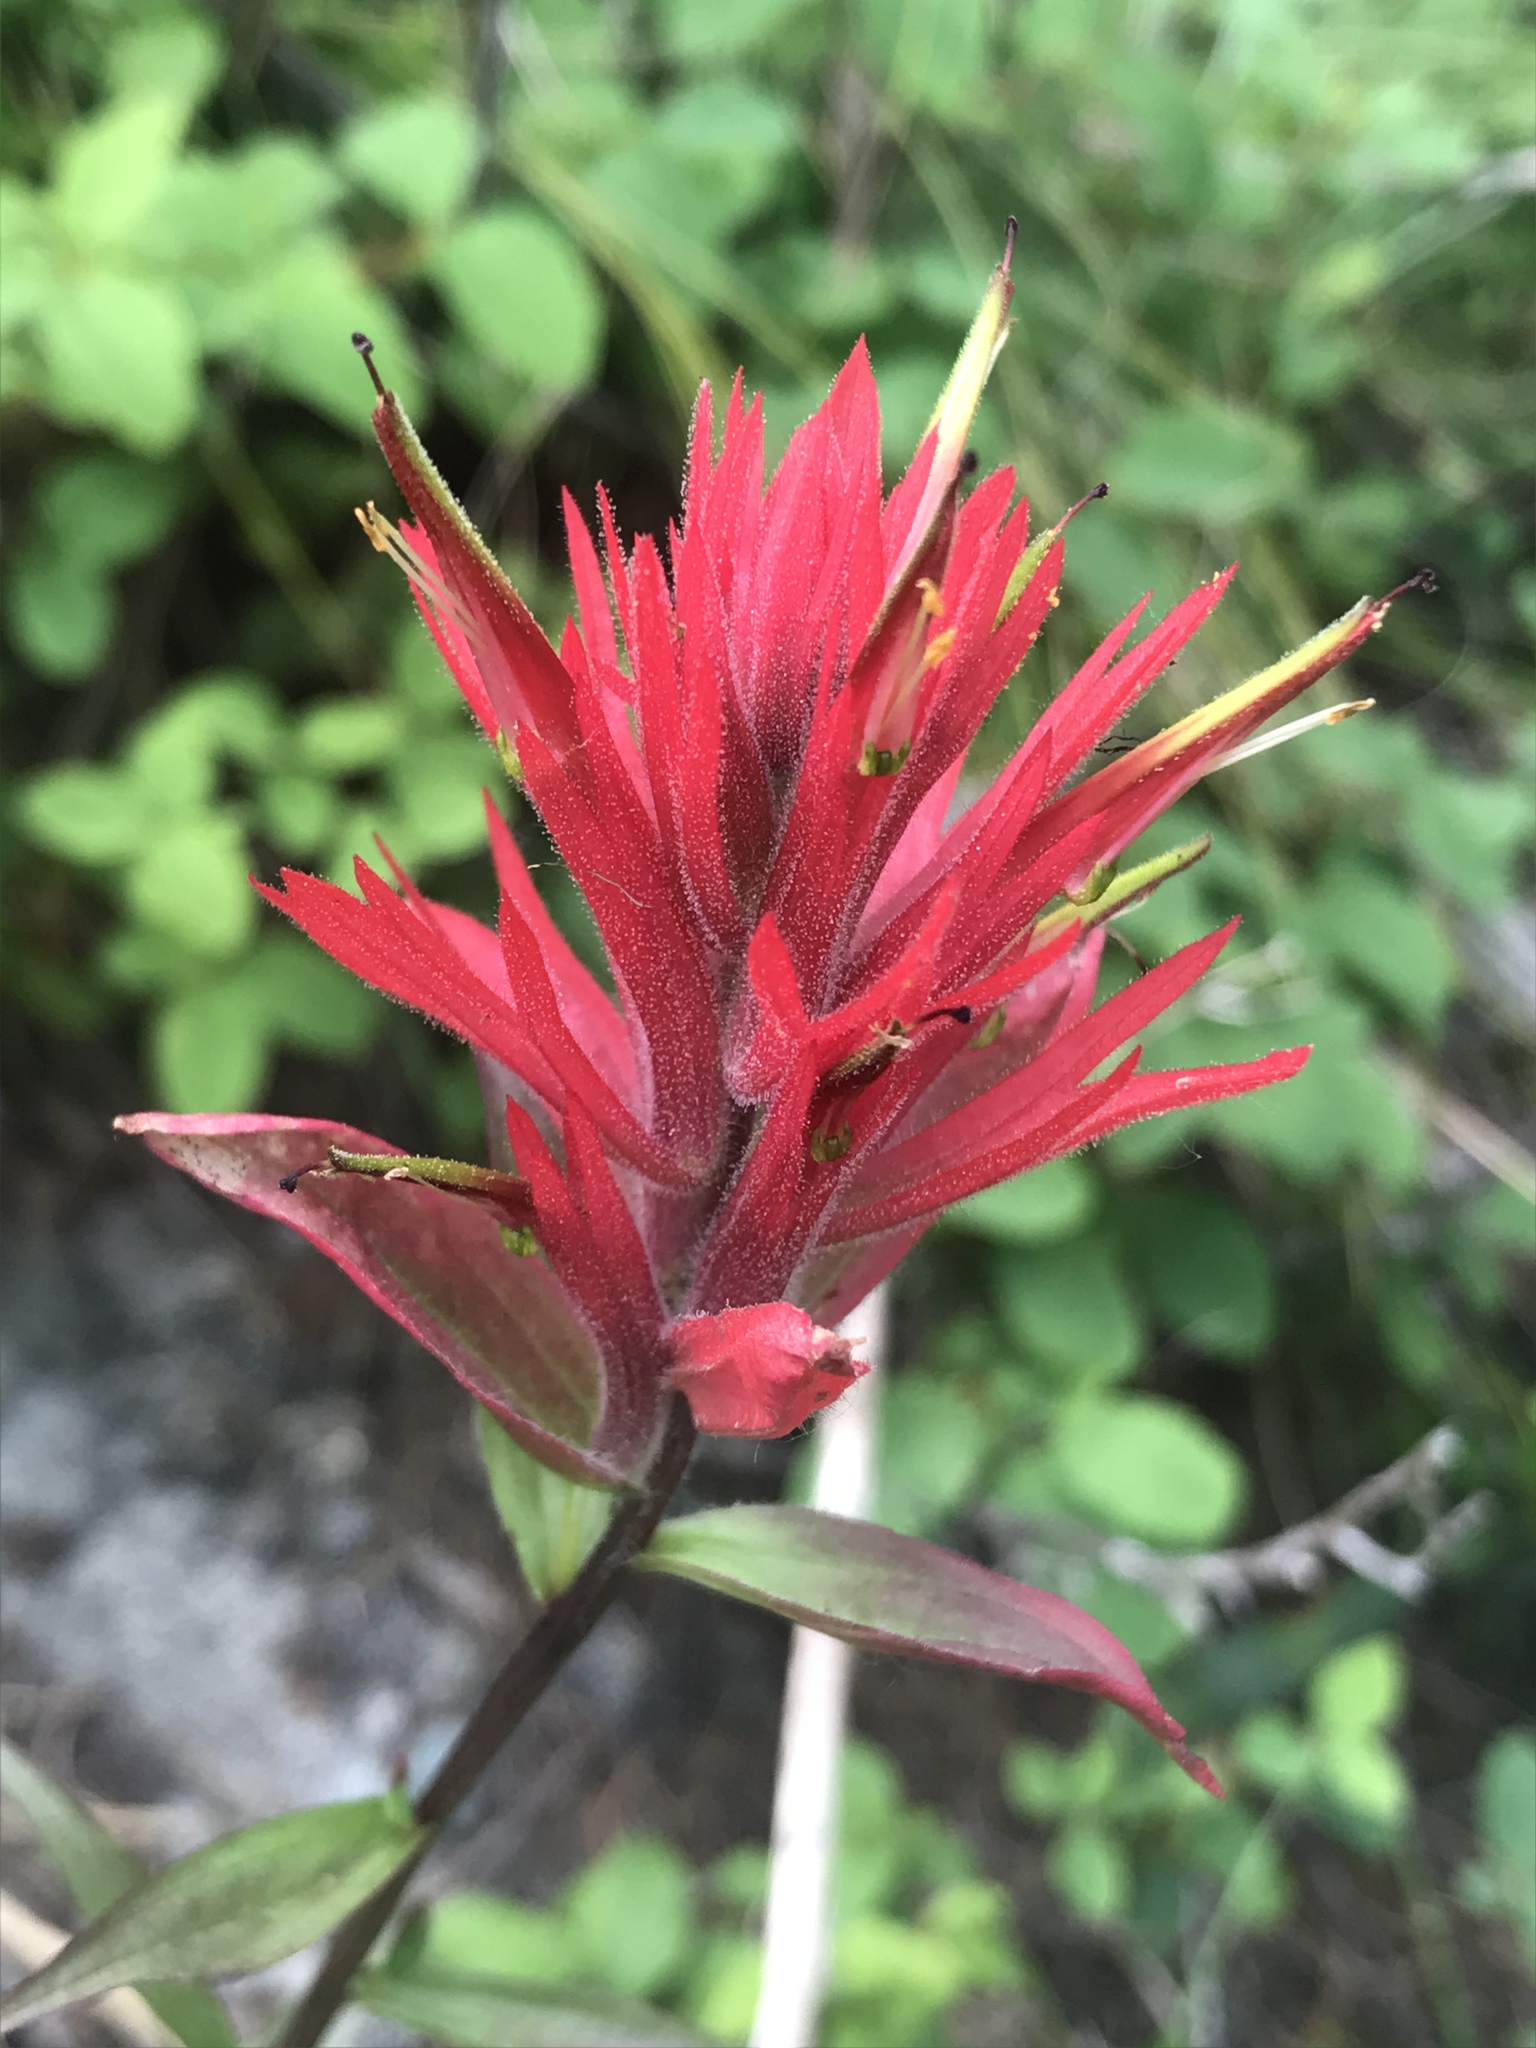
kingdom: Plantae
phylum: Tracheophyta
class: Magnoliopsida
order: Lamiales
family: Orobanchaceae
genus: Castilleja
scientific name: Castilleja miniata
